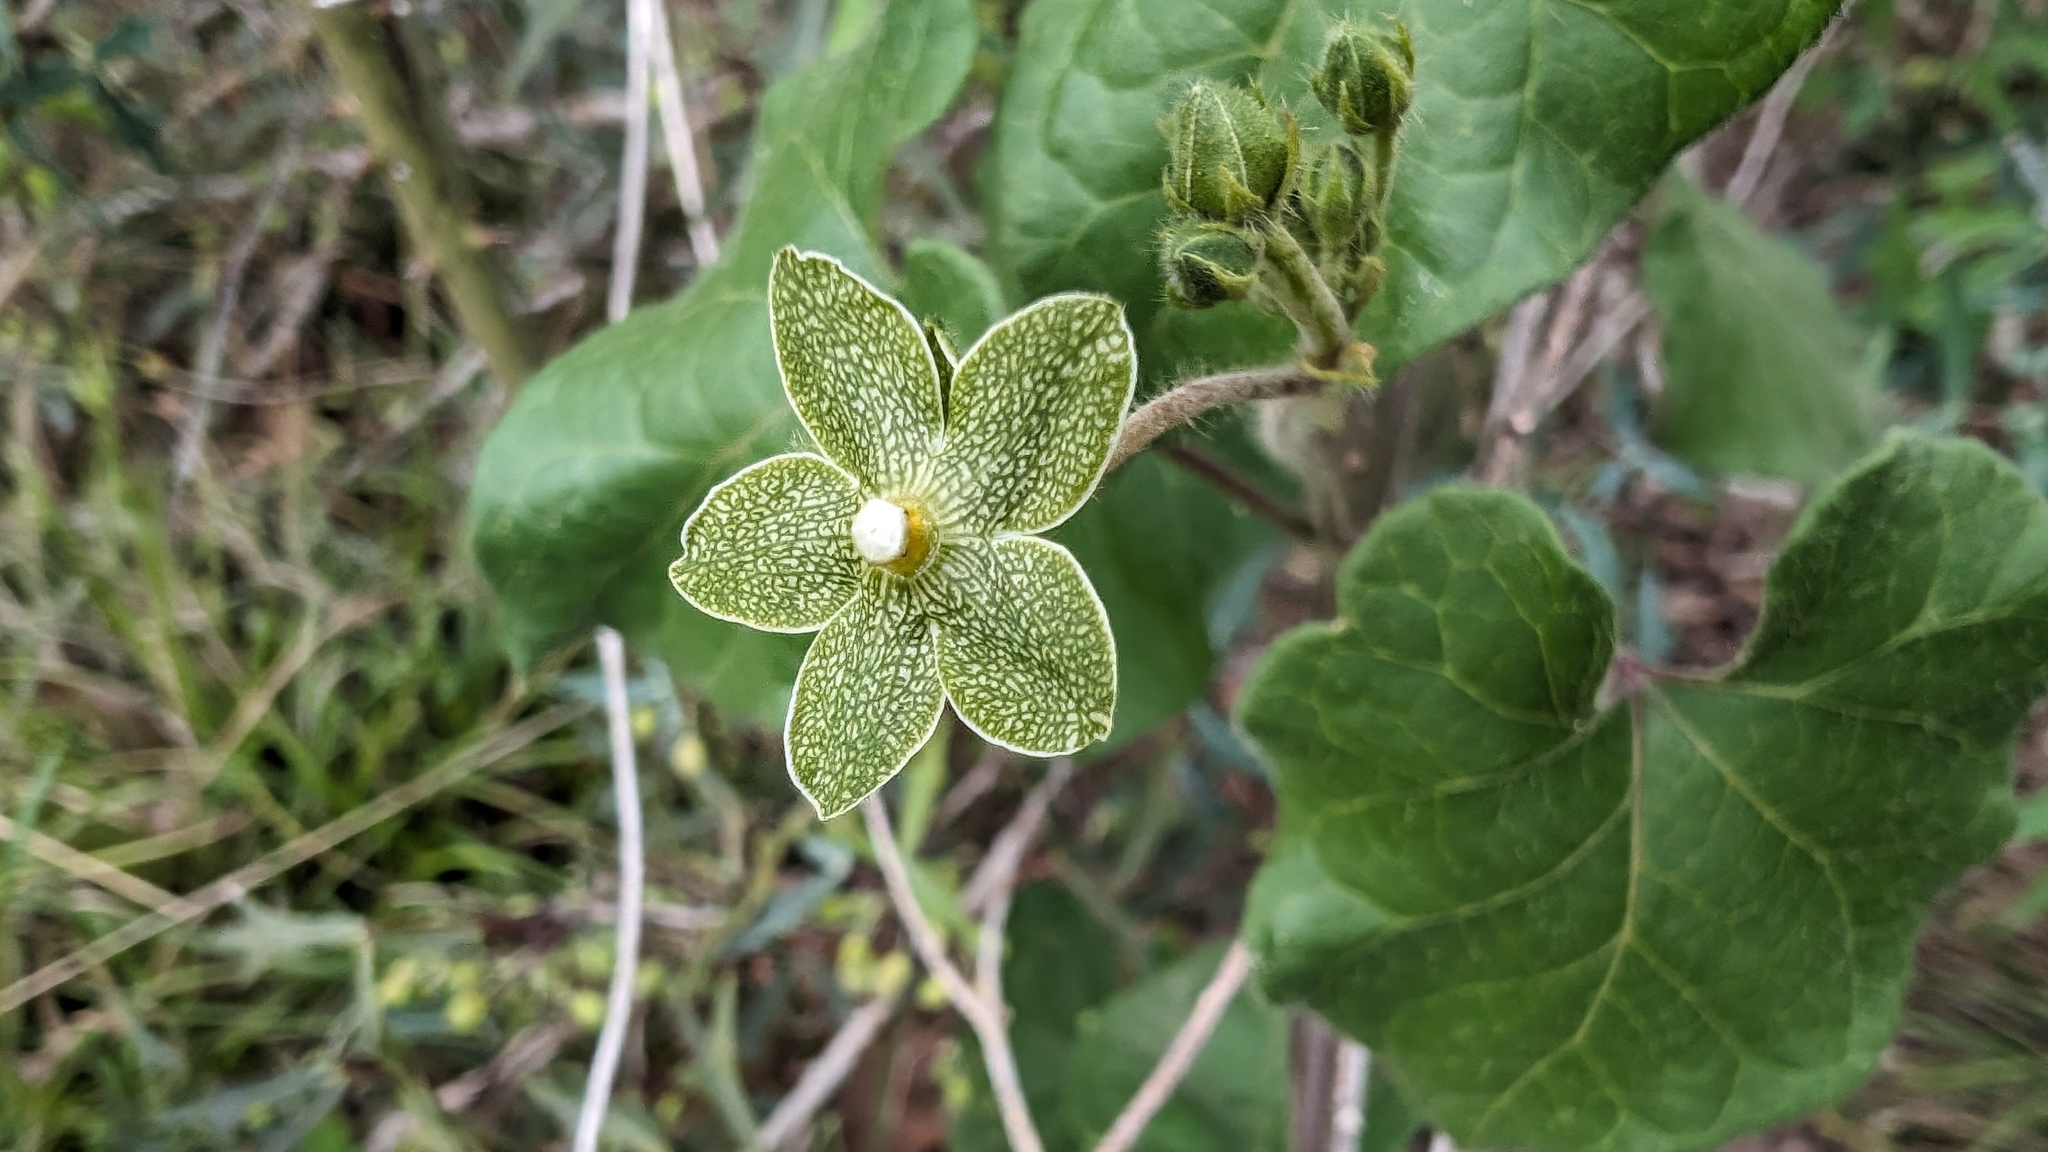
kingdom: Plantae
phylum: Tracheophyta
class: Magnoliopsida
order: Gentianales
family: Apocynaceae
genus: Dictyanthus
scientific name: Dictyanthus reticulatus
